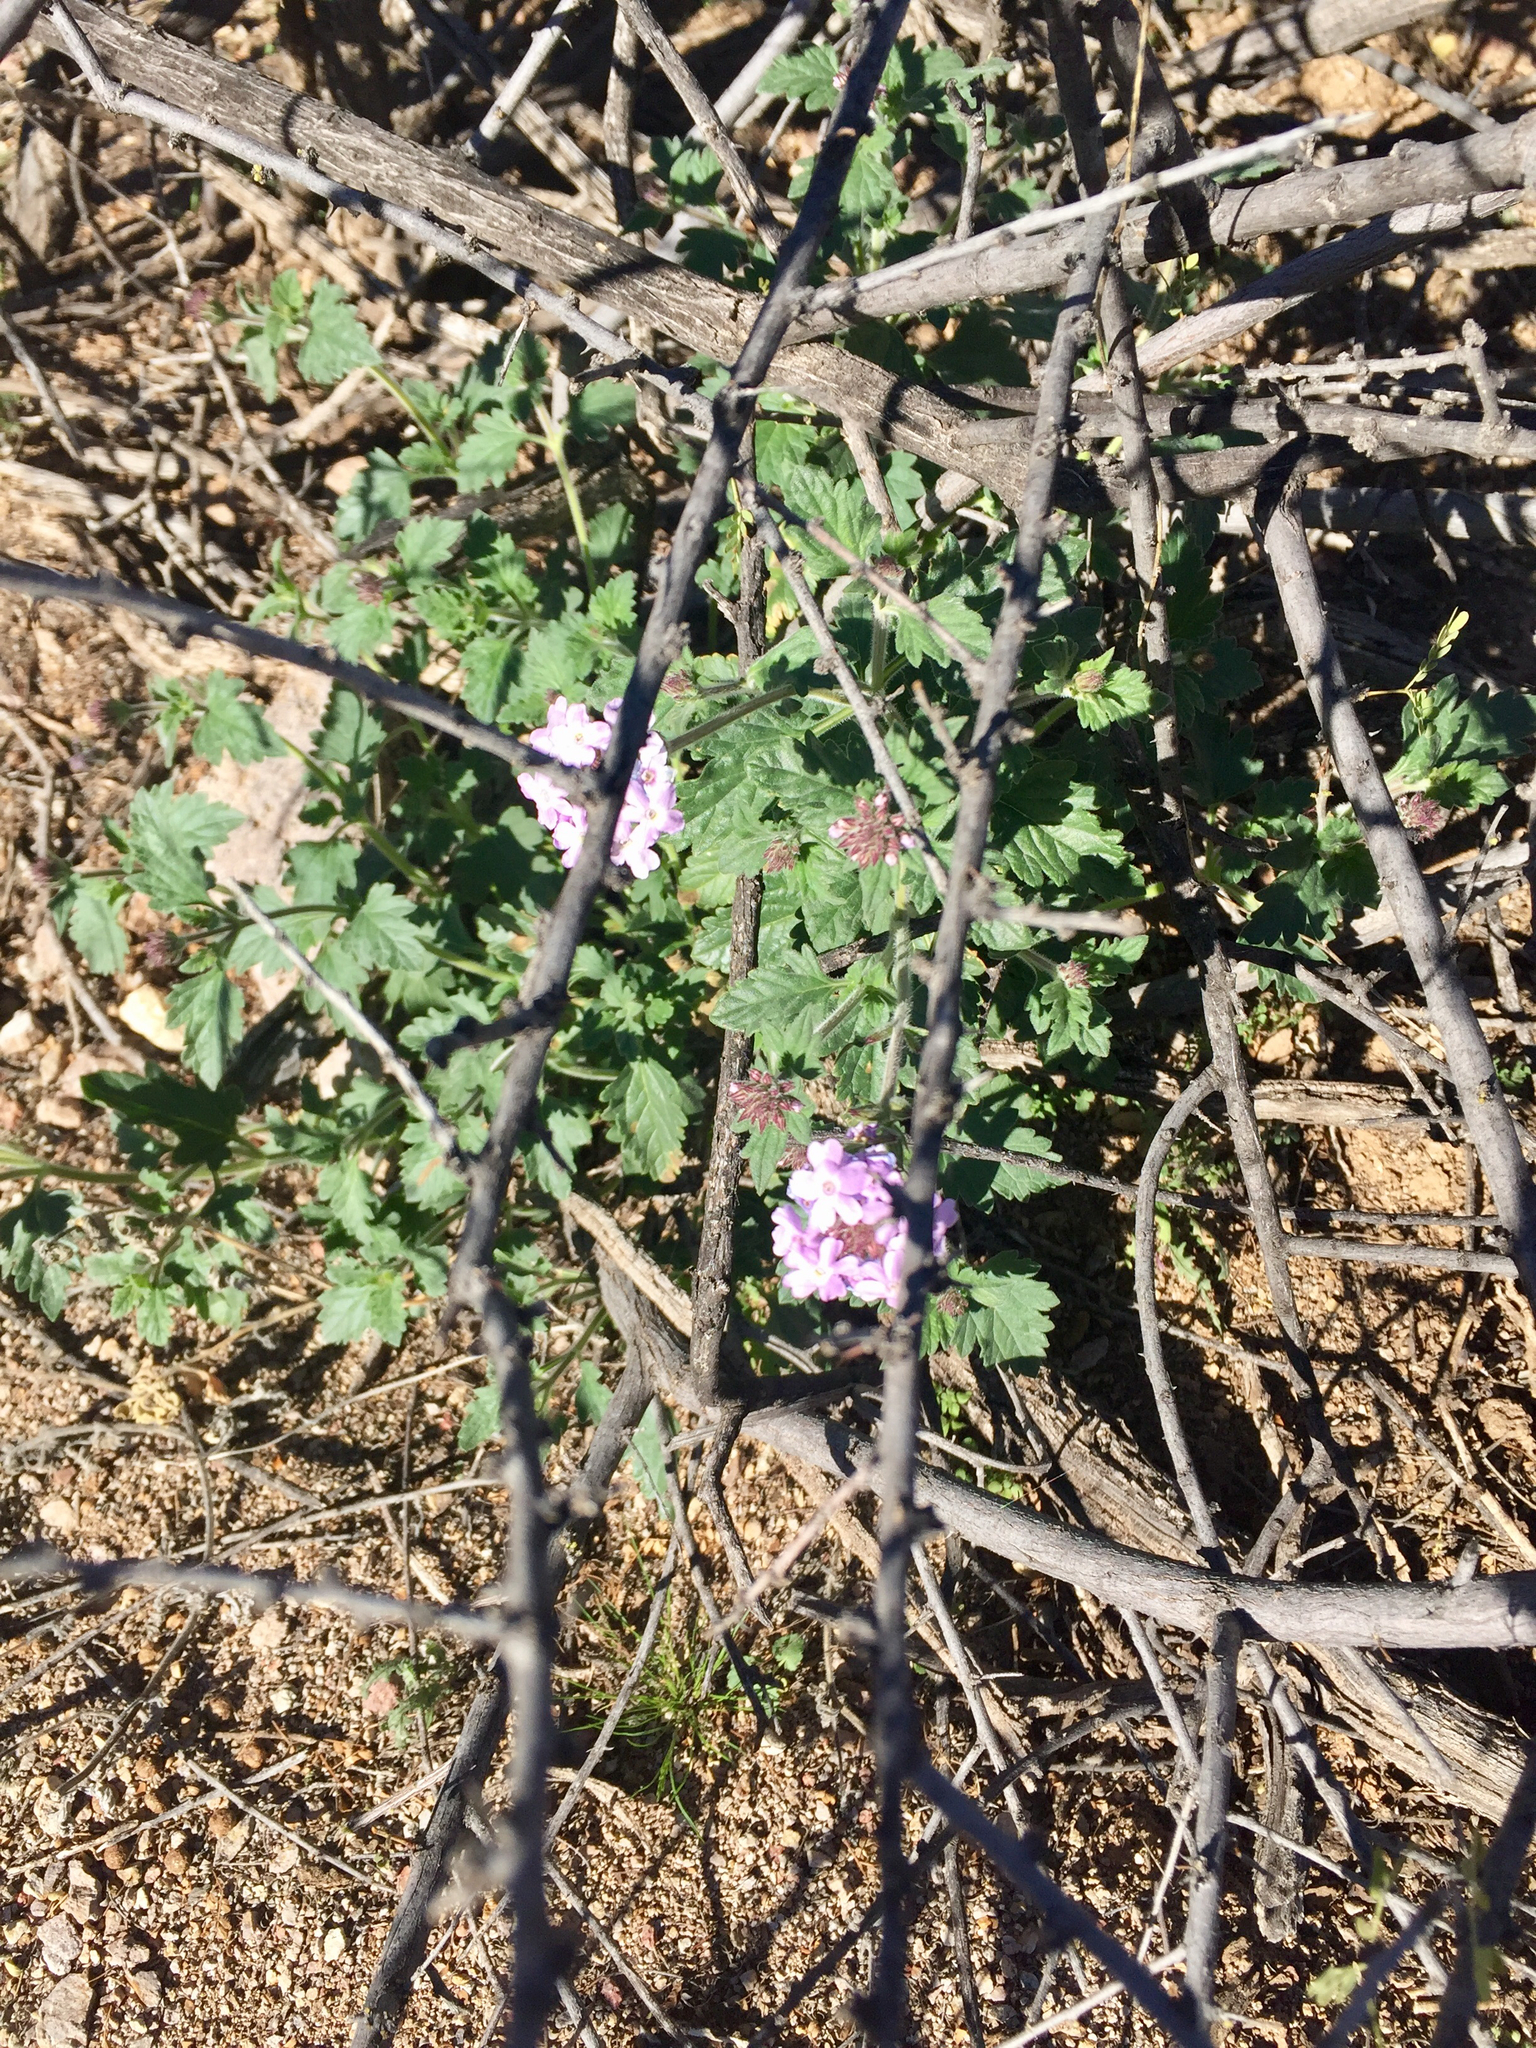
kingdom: Plantae
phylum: Tracheophyta
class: Magnoliopsida
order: Lamiales
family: Verbenaceae
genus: Verbena
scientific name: Verbena gooddingii
